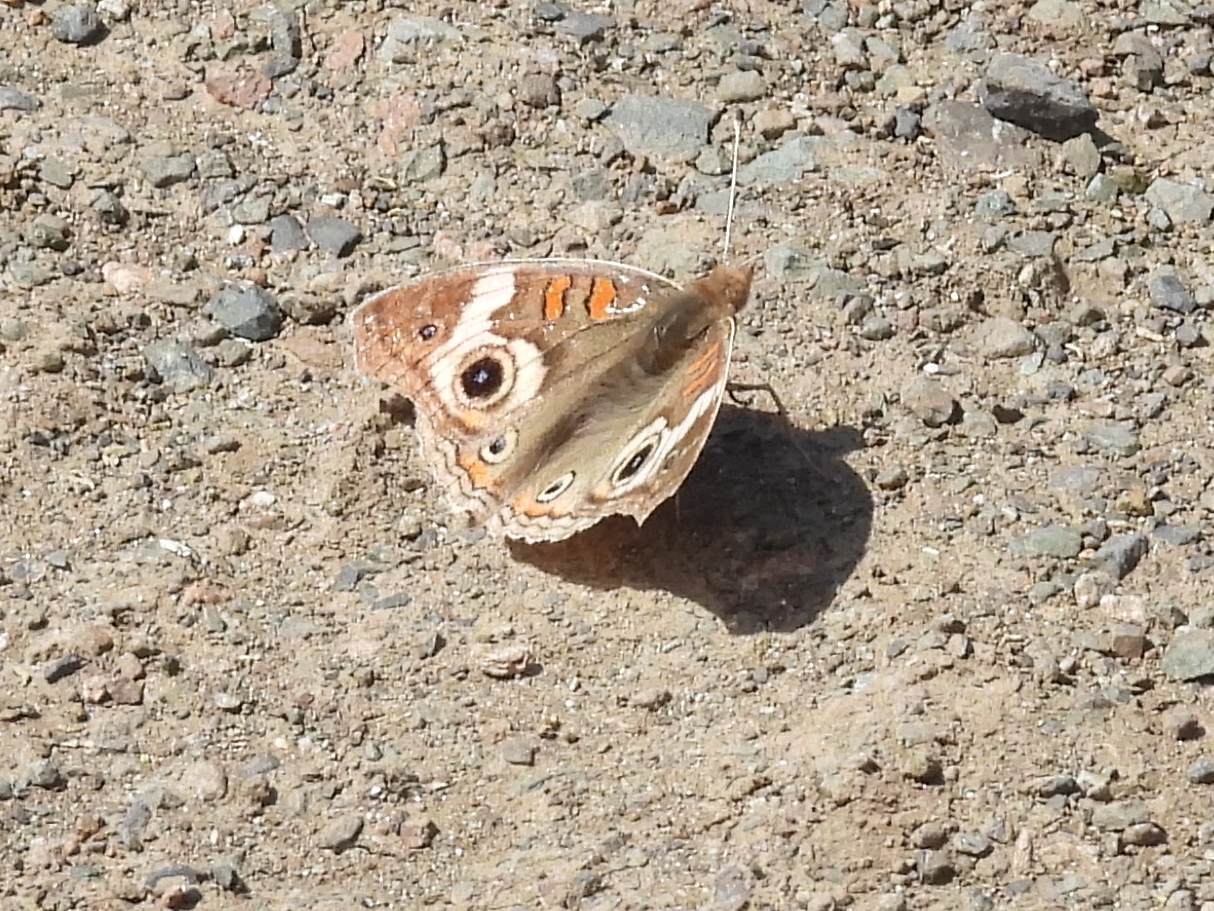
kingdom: Animalia
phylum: Arthropoda
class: Insecta
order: Lepidoptera
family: Nymphalidae
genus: Junonia
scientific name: Junonia grisea
